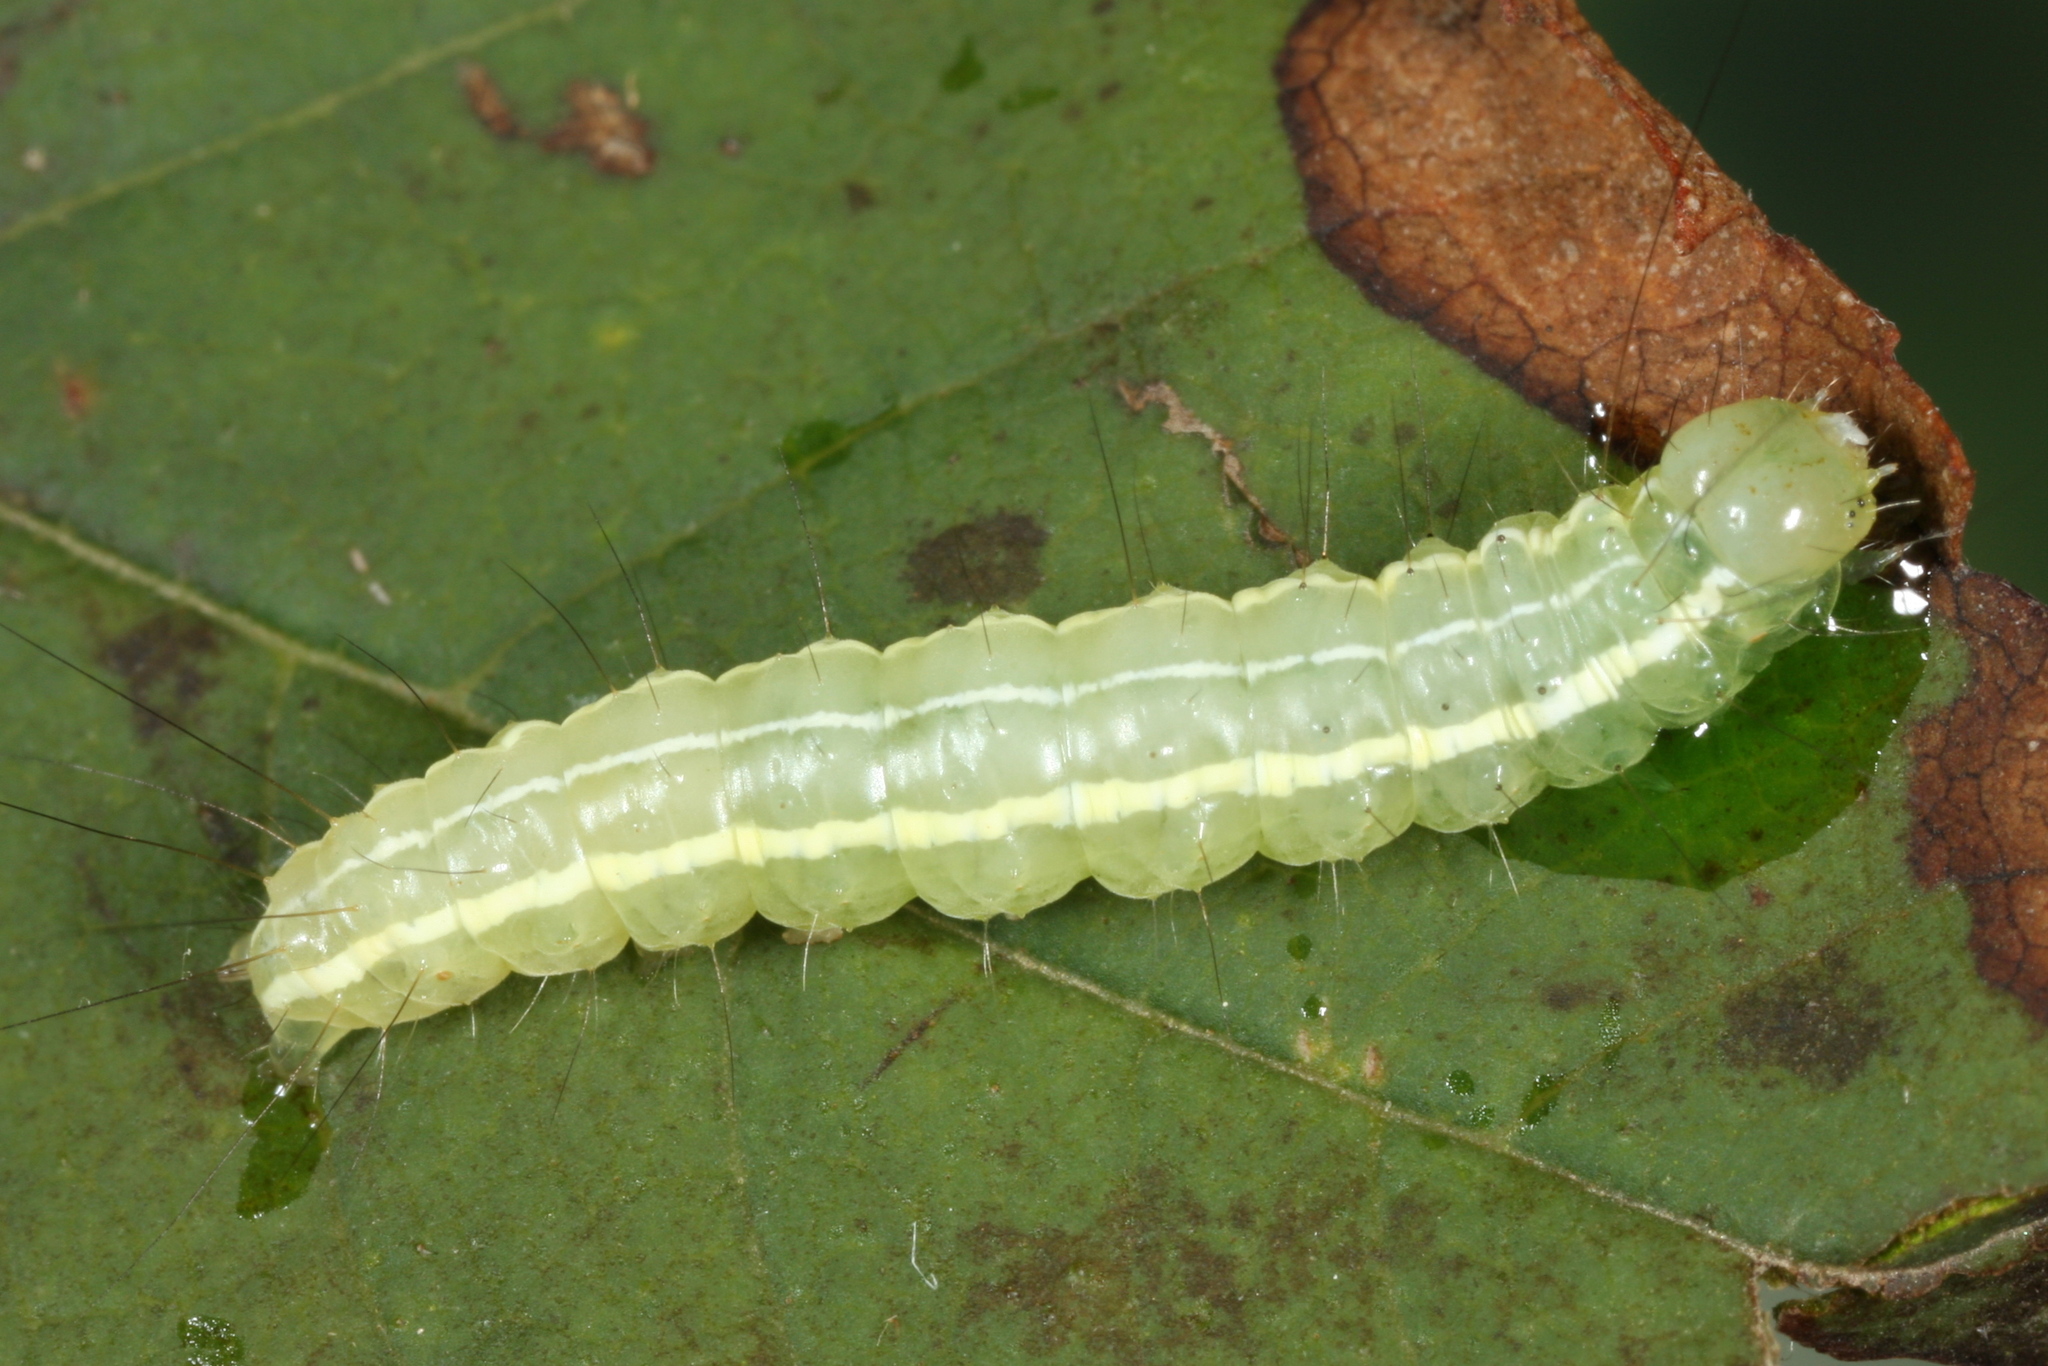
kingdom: Animalia
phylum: Arthropoda
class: Insecta
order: Lepidoptera
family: Noctuidae
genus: Craniophora
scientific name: Craniophora ligustri
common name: Coronet
